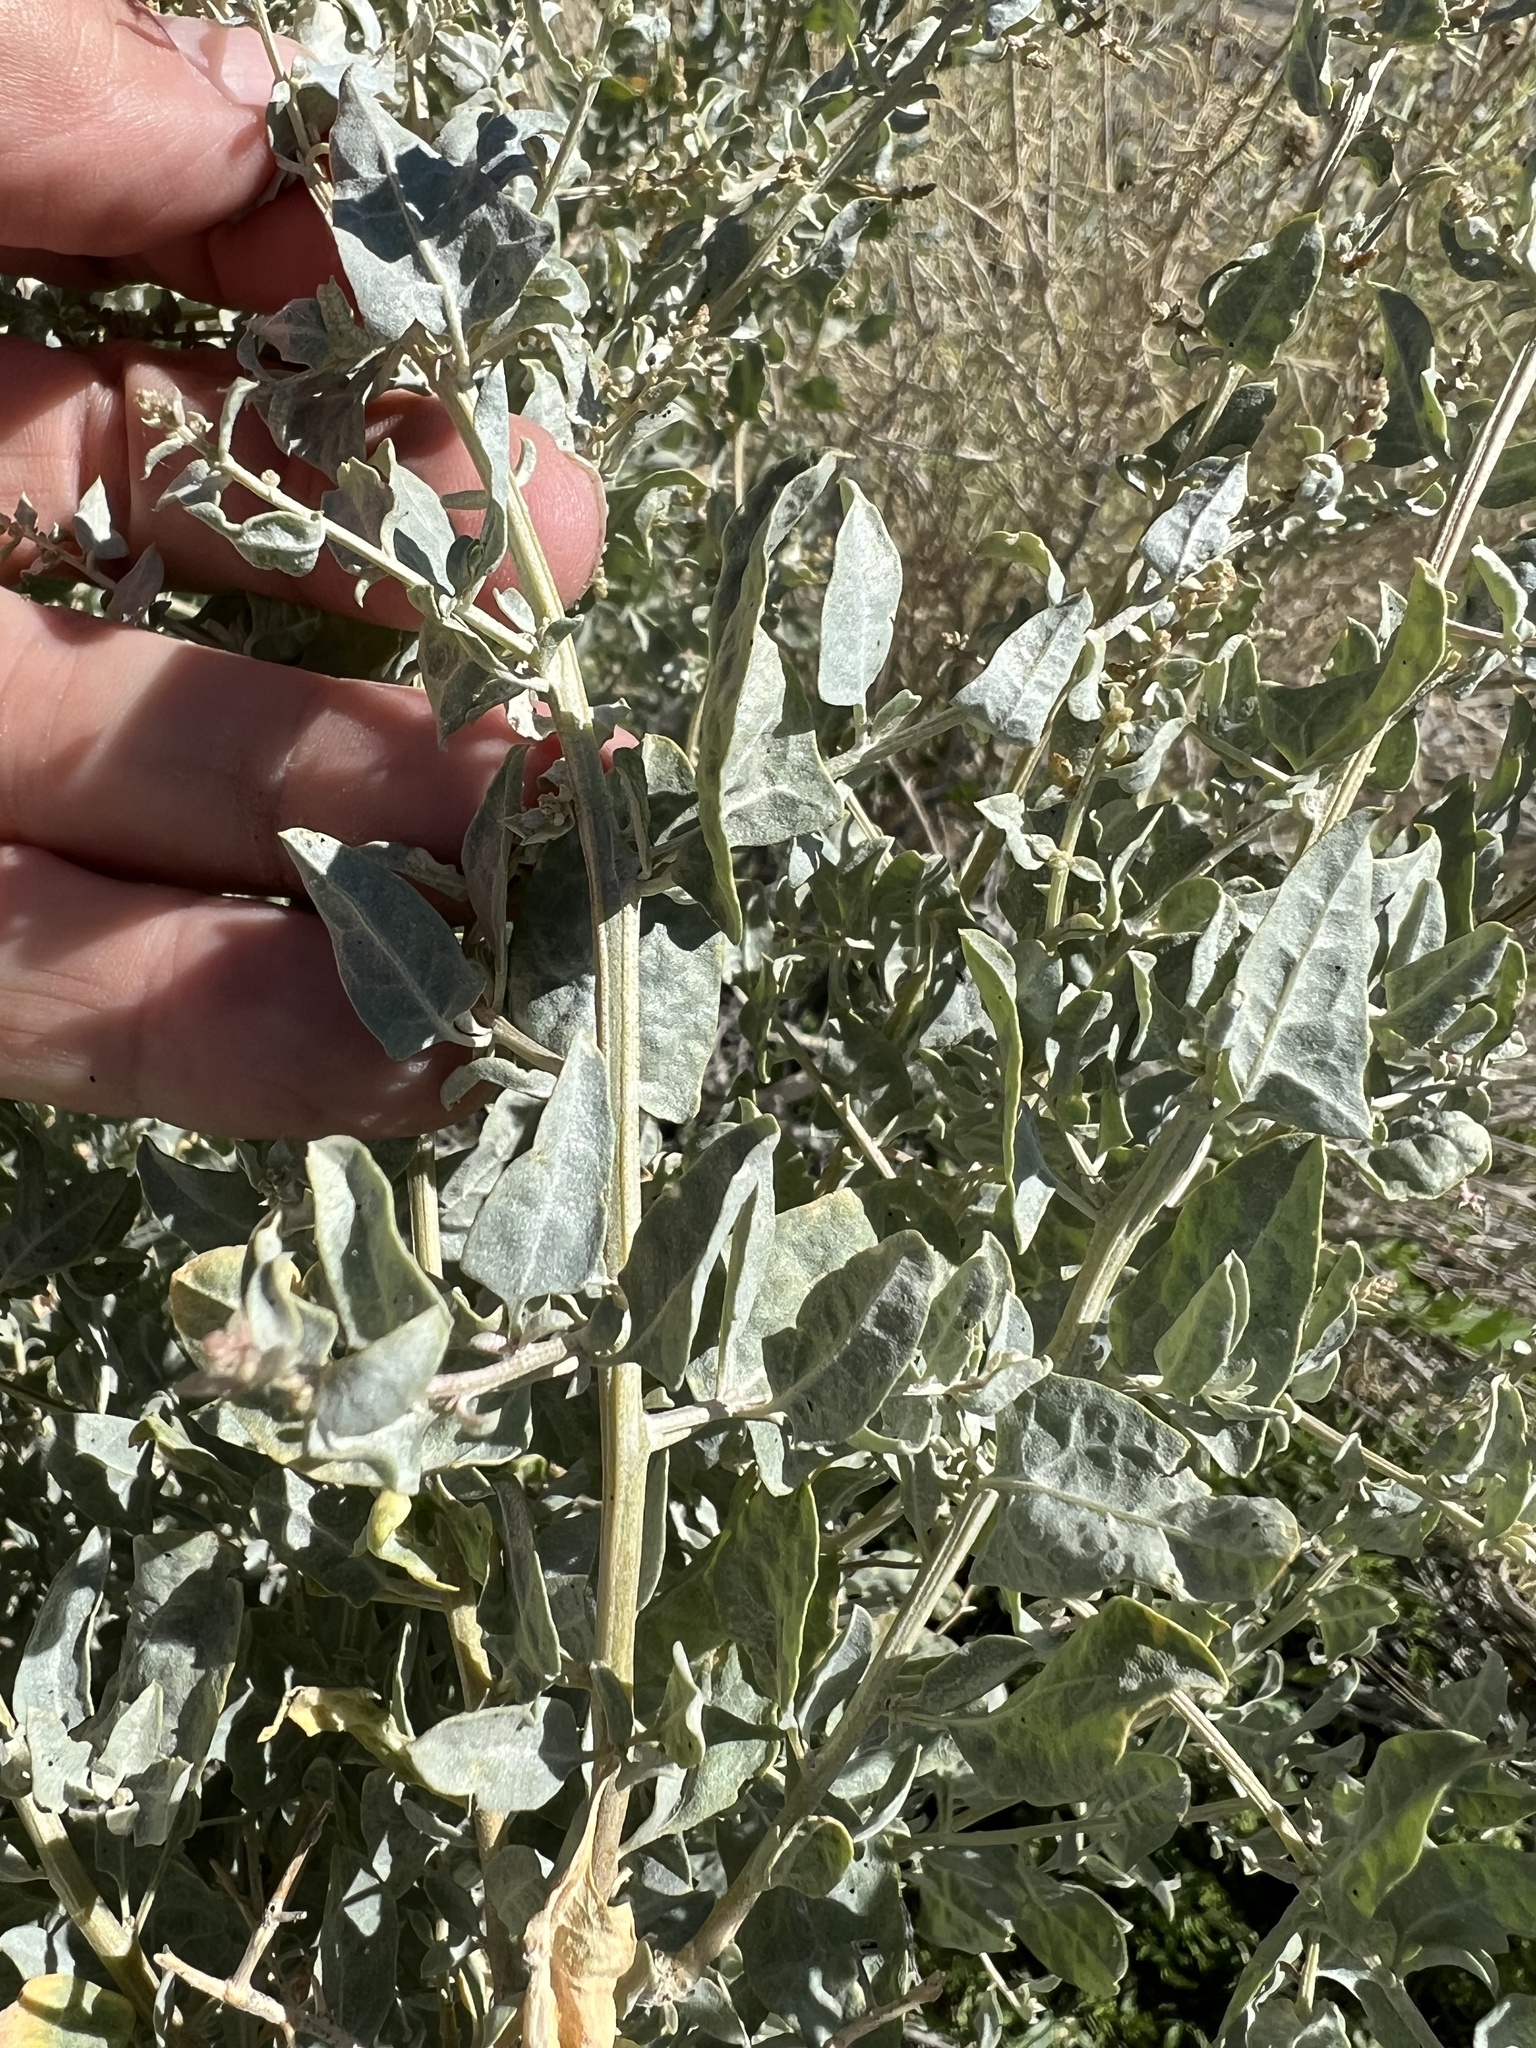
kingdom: Plantae
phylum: Tracheophyta
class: Magnoliopsida
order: Caryophyllales
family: Amaranthaceae
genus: Atriplex
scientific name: Atriplex torreyi
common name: Torrey's saltbush
